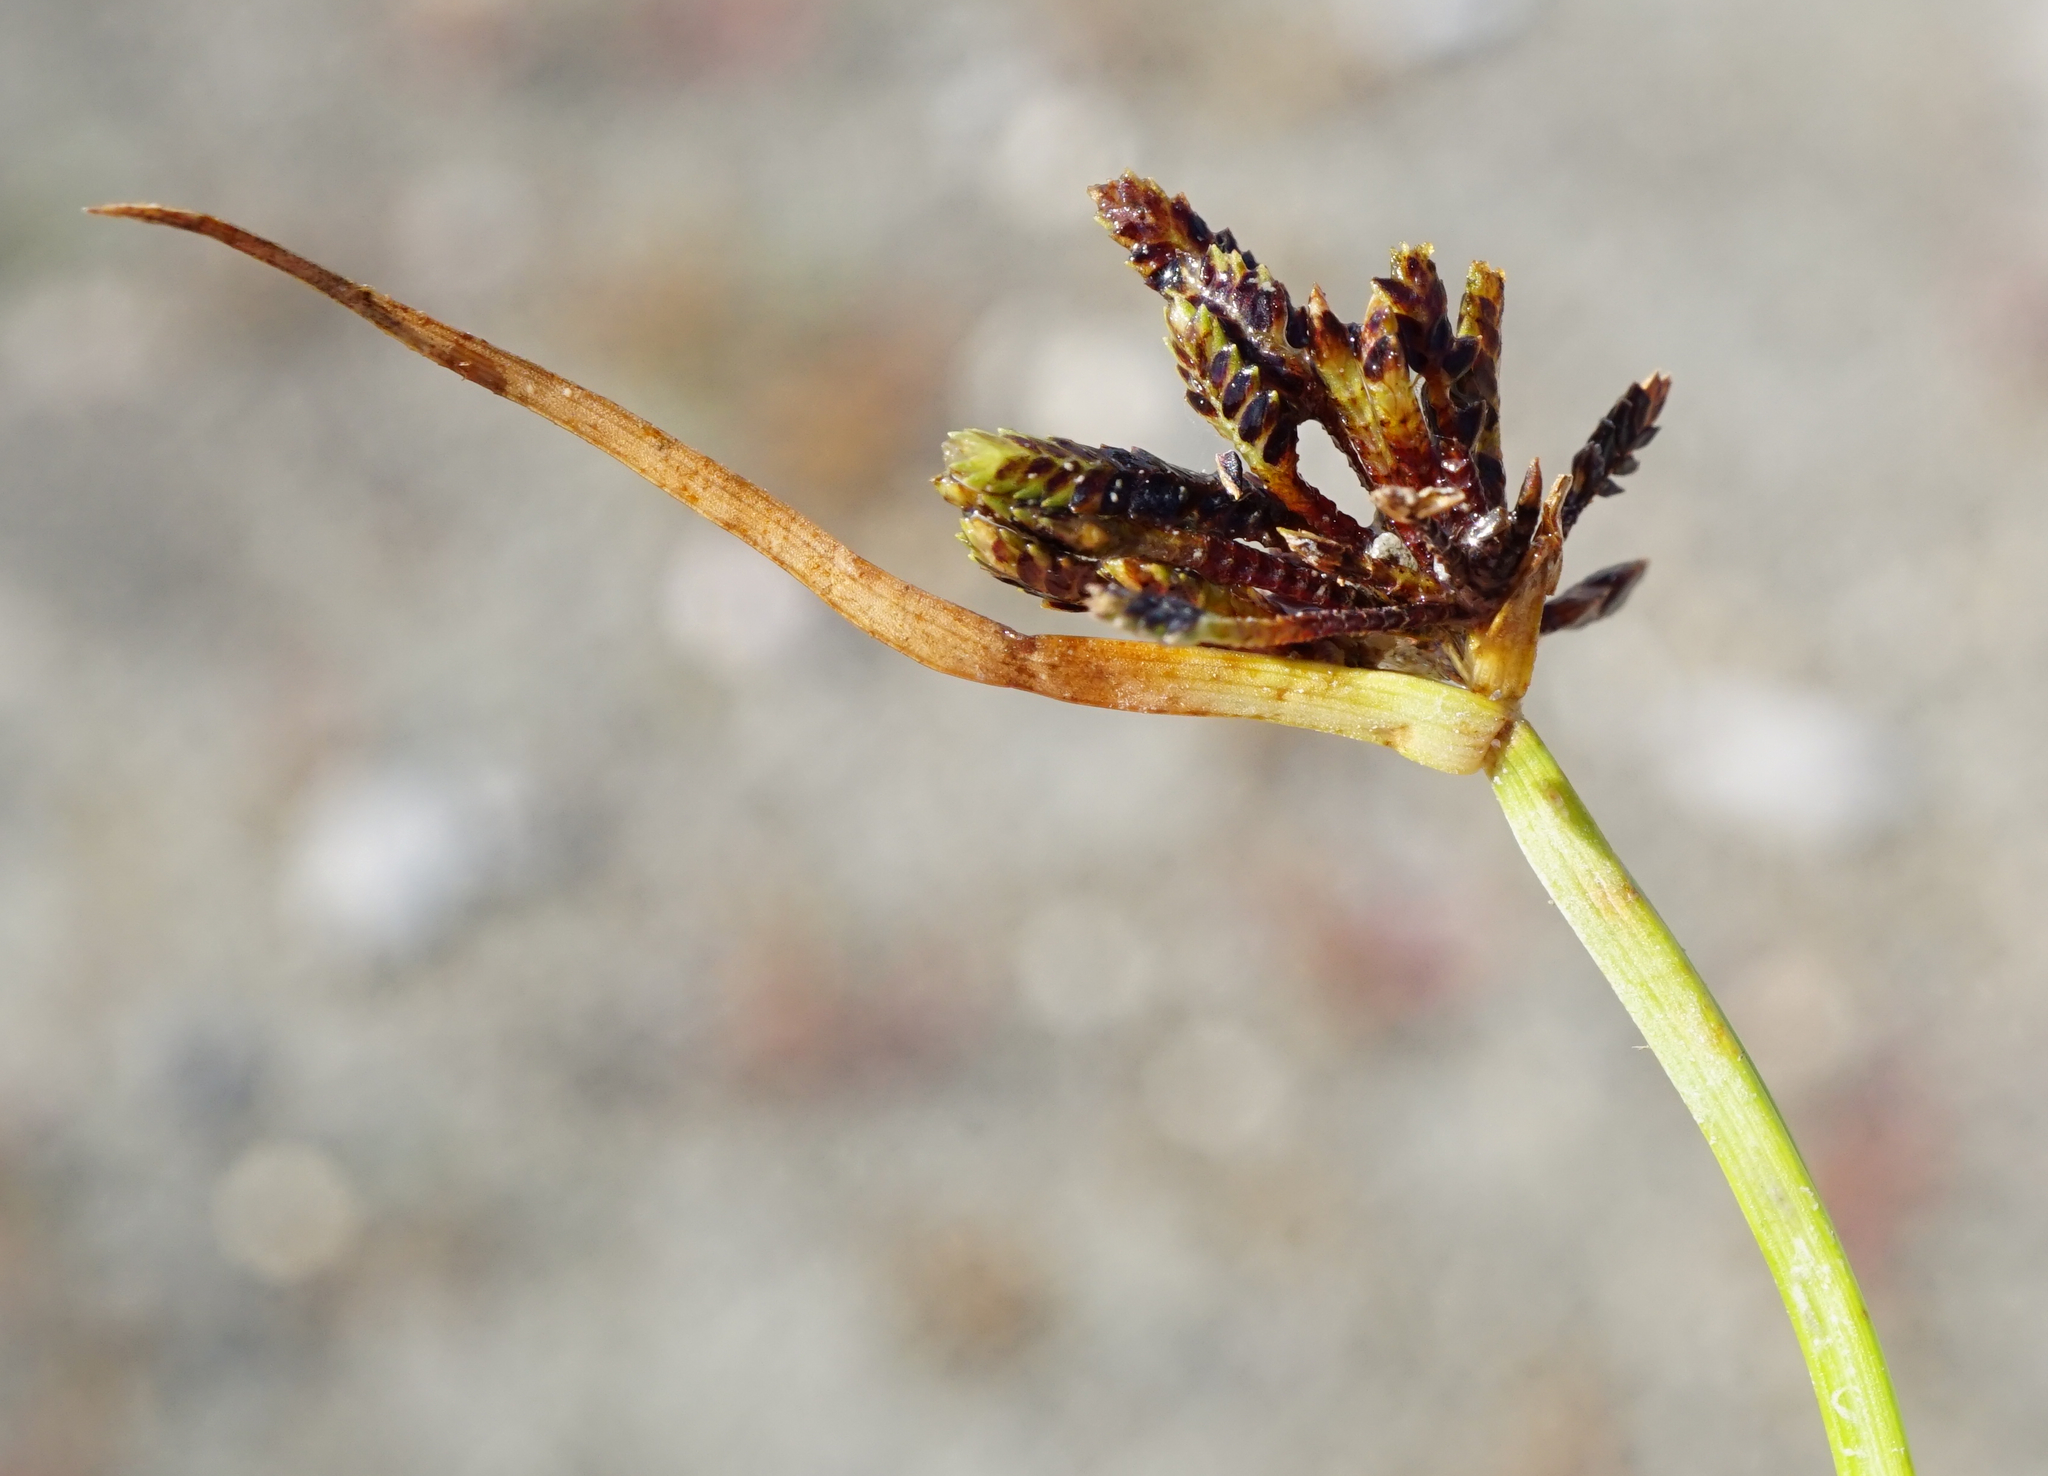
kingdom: Plantae
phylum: Tracheophyta
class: Liliopsida
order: Poales
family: Cyperaceae
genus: Cyperus
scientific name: Cyperus fuscus
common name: Brown galingale
